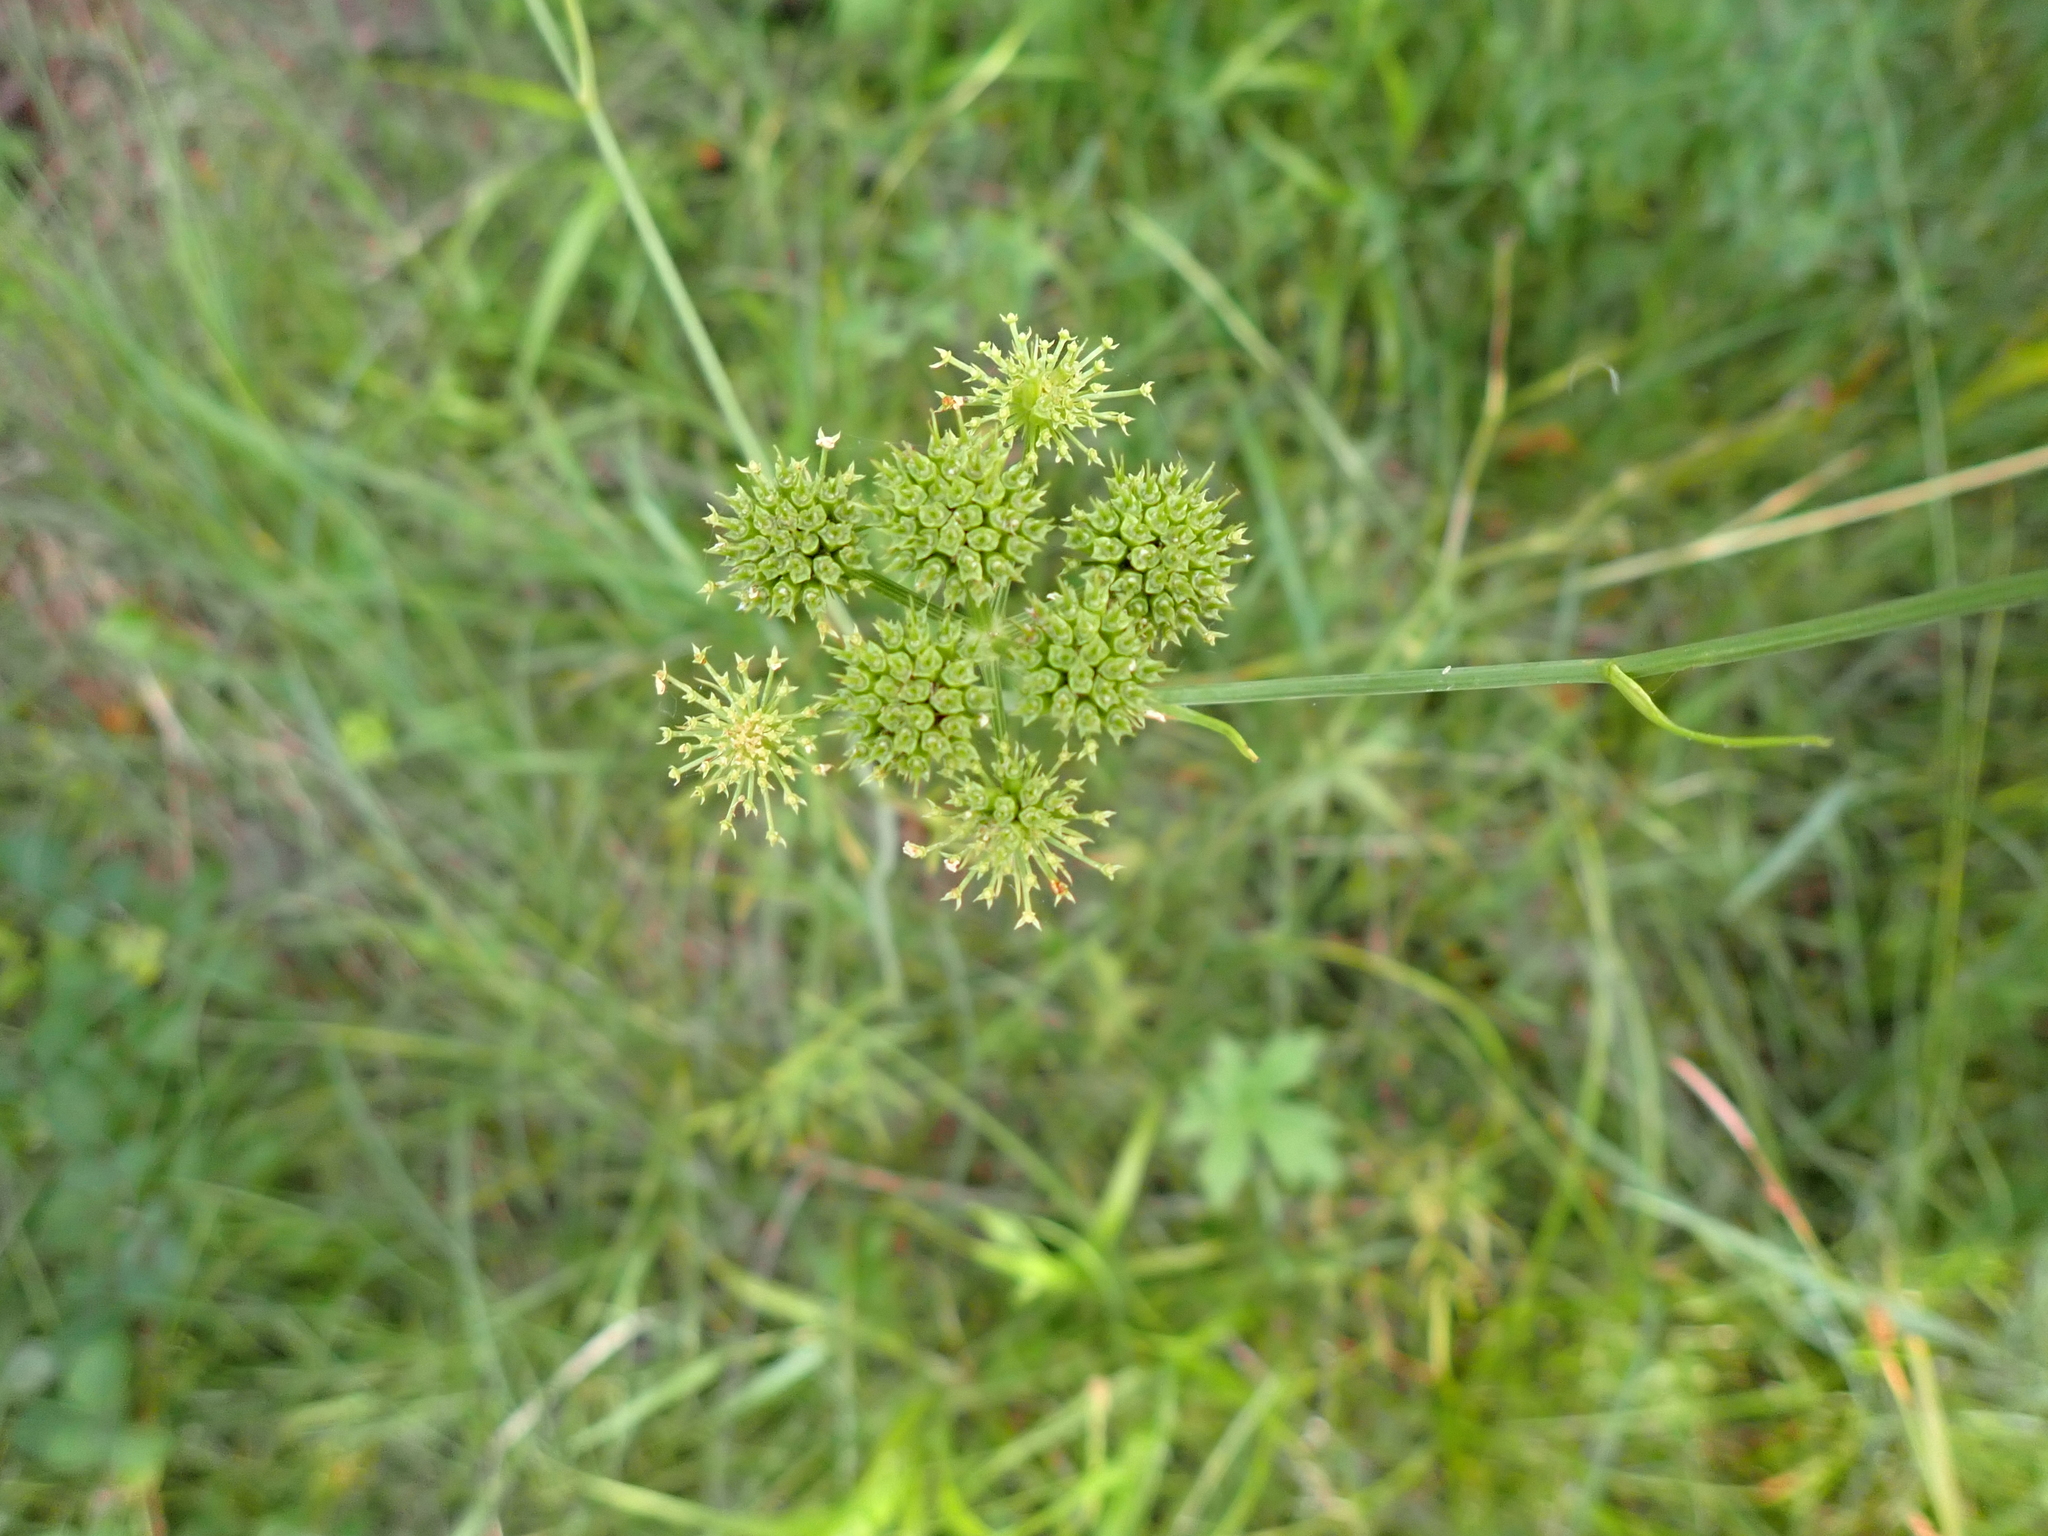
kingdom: Plantae
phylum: Tracheophyta
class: Magnoliopsida
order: Apiales
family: Apiaceae
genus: Oenanthe
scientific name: Oenanthe pimpinelloides
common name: Corky-fruited water-dropwort
